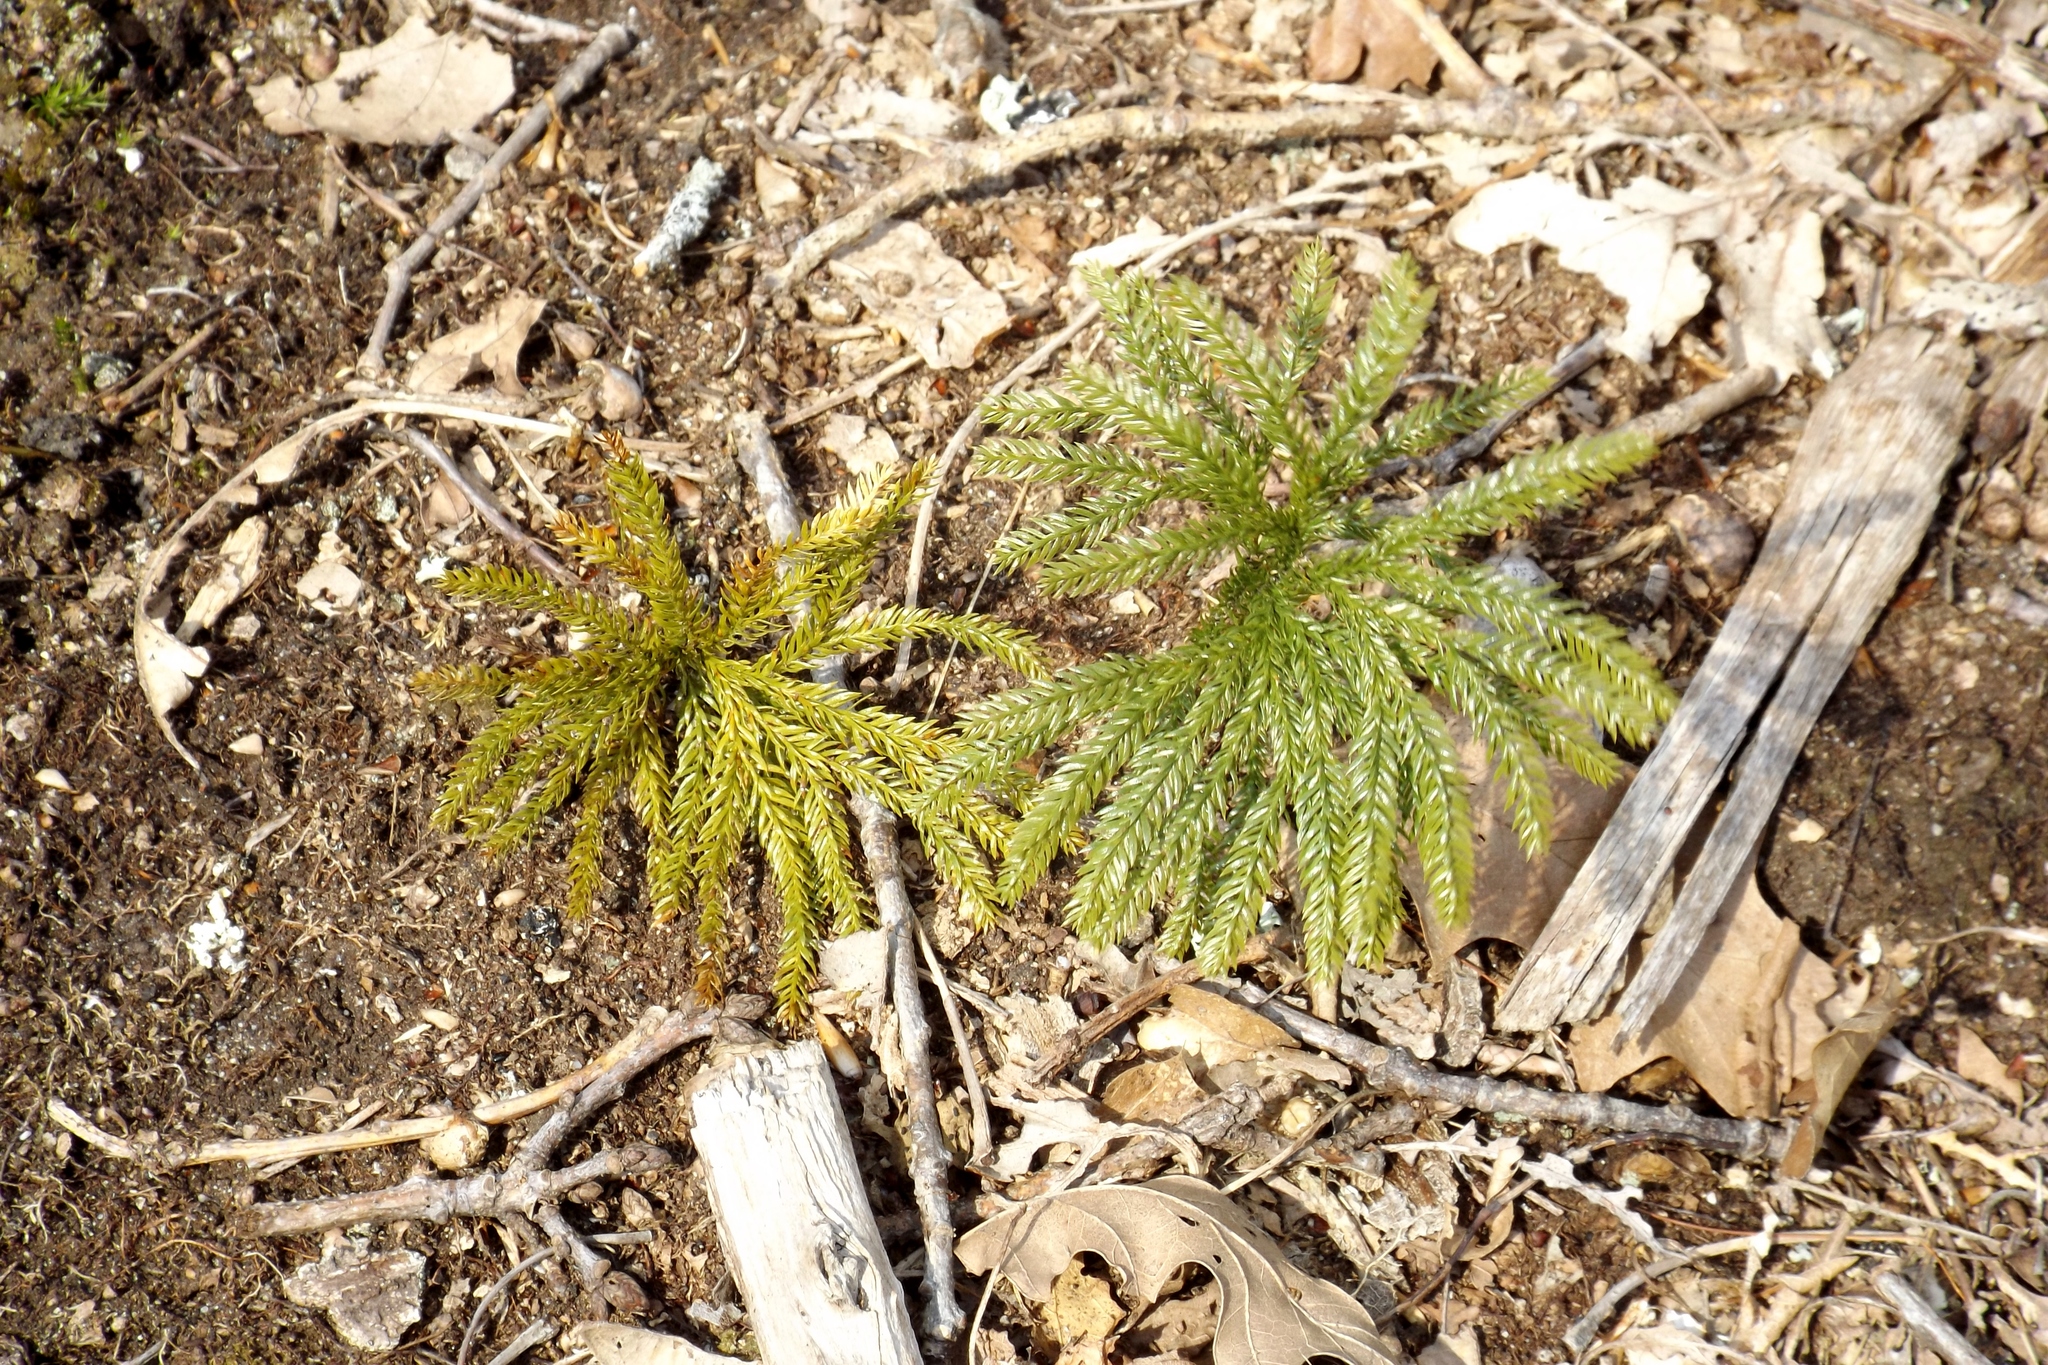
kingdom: Plantae
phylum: Tracheophyta
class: Lycopodiopsida
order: Lycopodiales
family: Lycopodiaceae
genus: Dendrolycopodium
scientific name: Dendrolycopodium obscurum
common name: Common ground-pine
